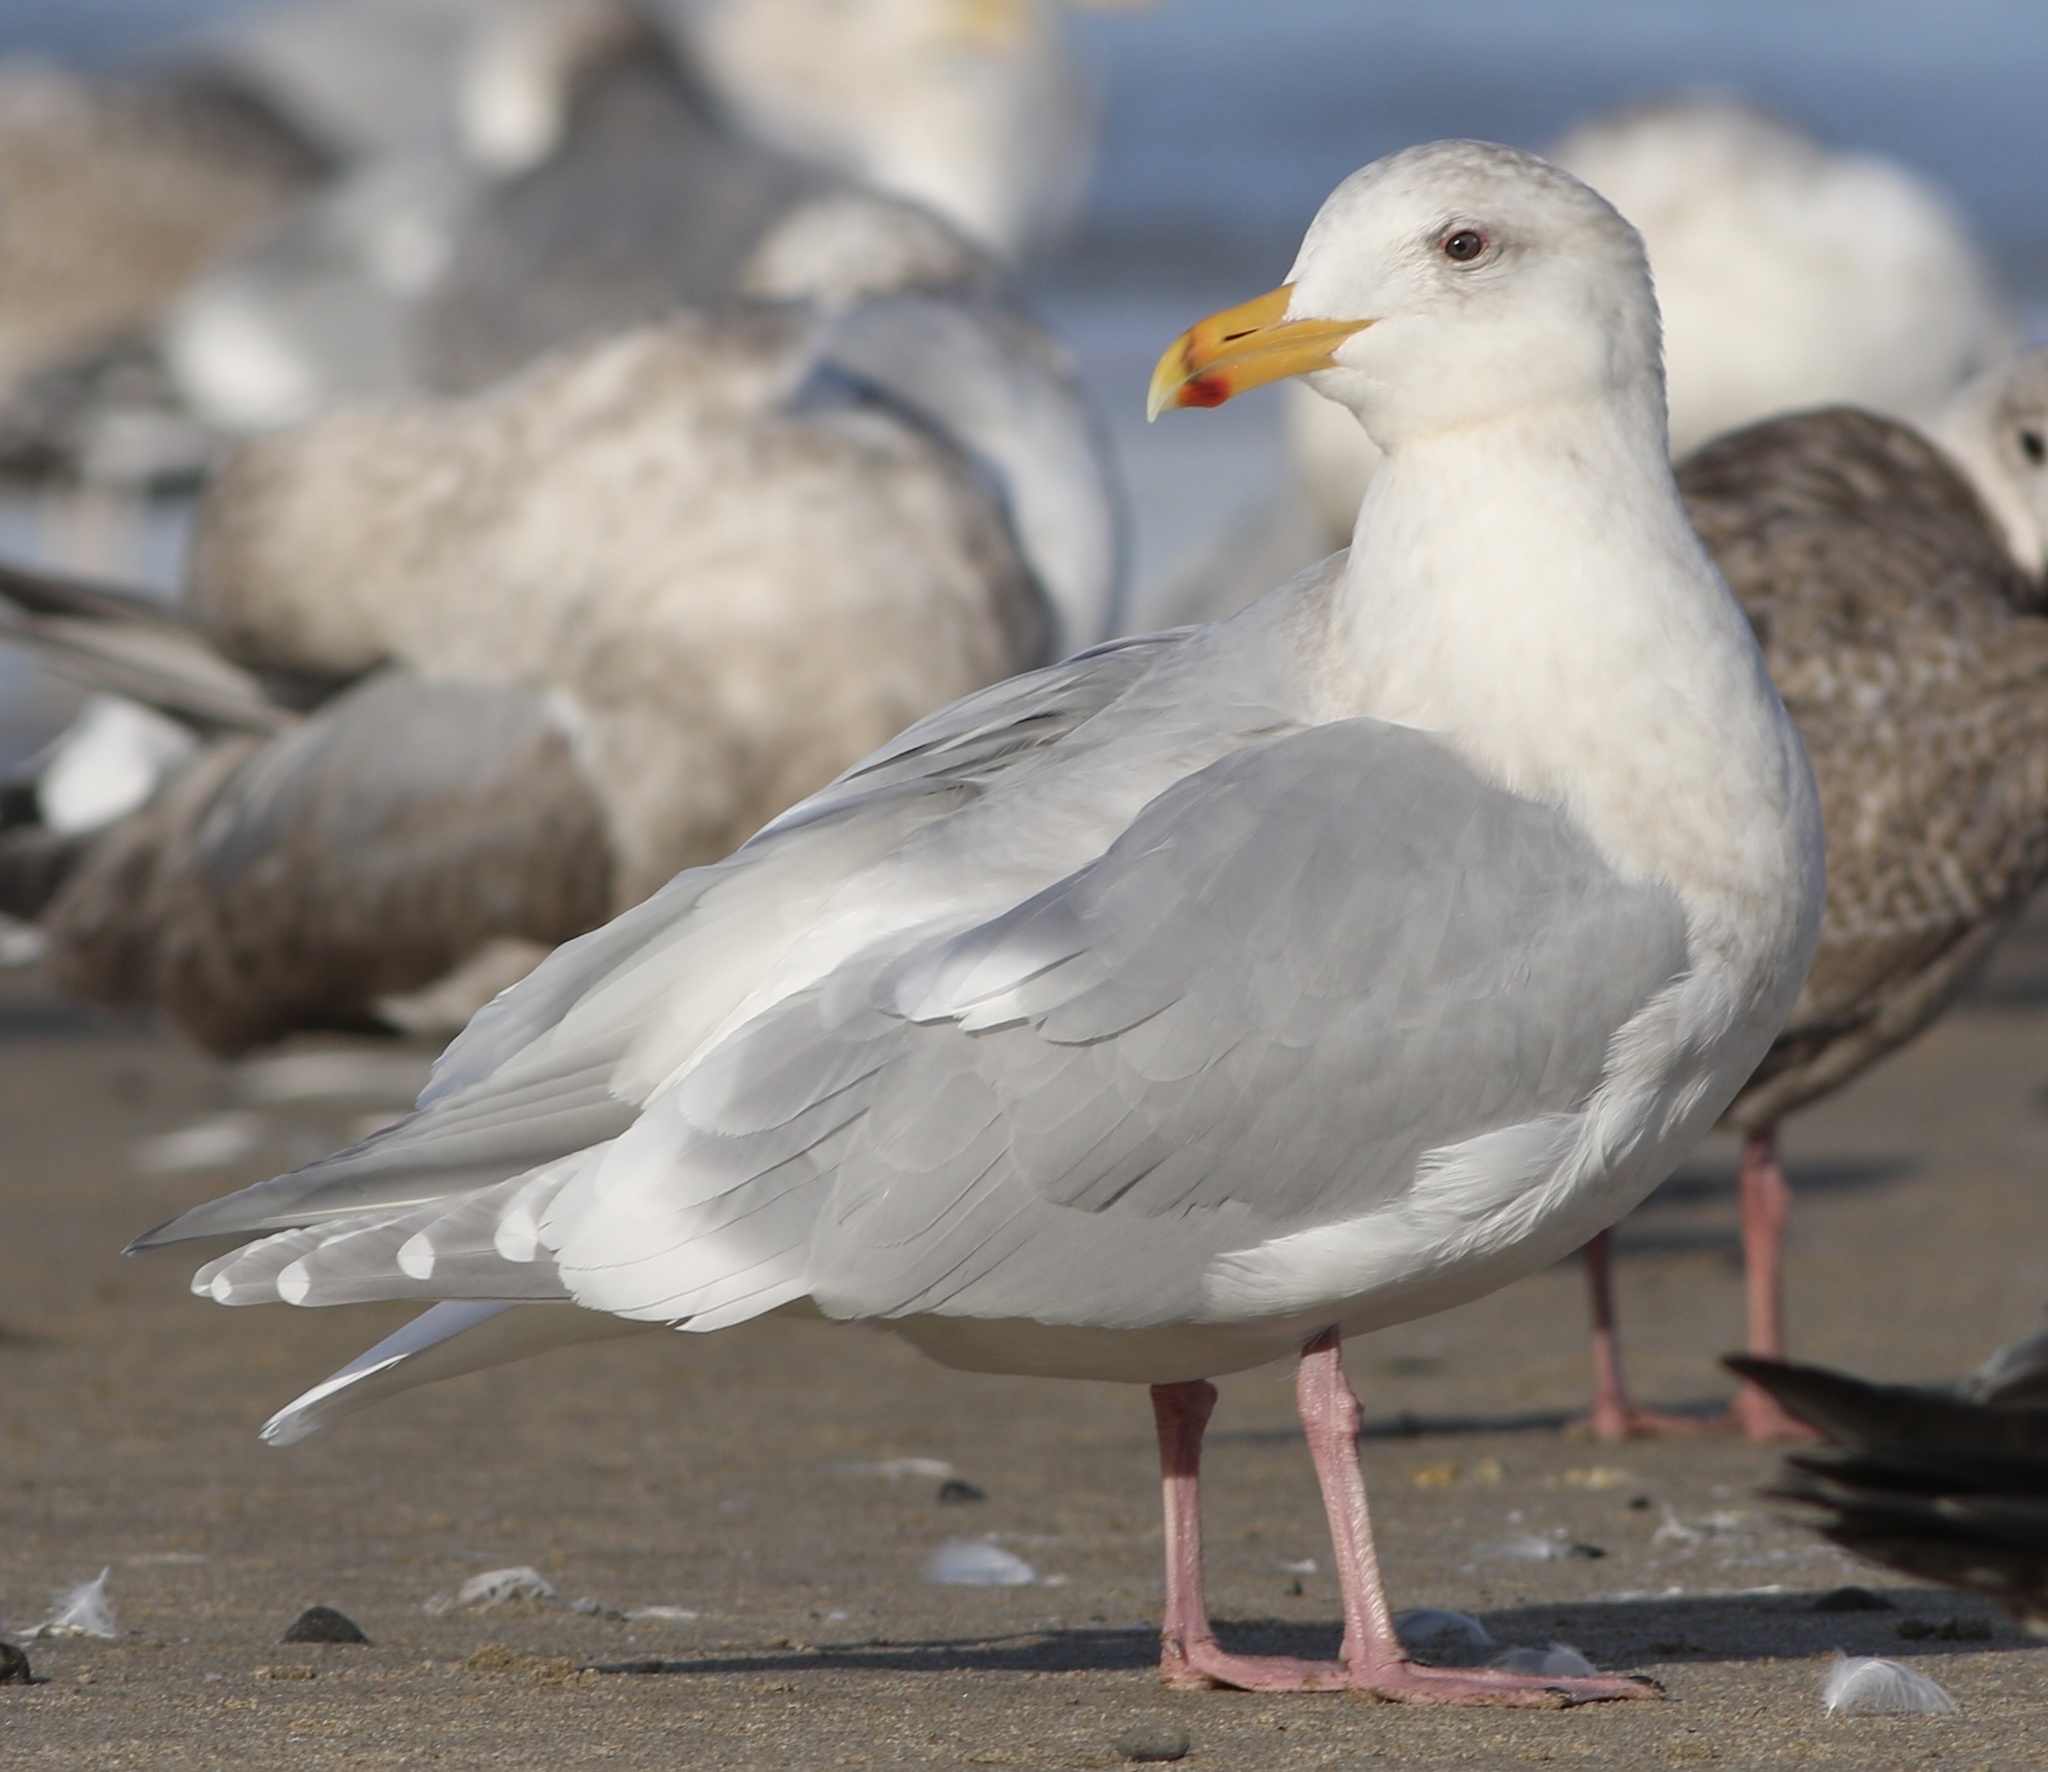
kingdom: Animalia
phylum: Chordata
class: Aves
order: Charadriiformes
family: Laridae
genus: Larus
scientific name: Larus glaucescens
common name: Glaucous-winged gull
